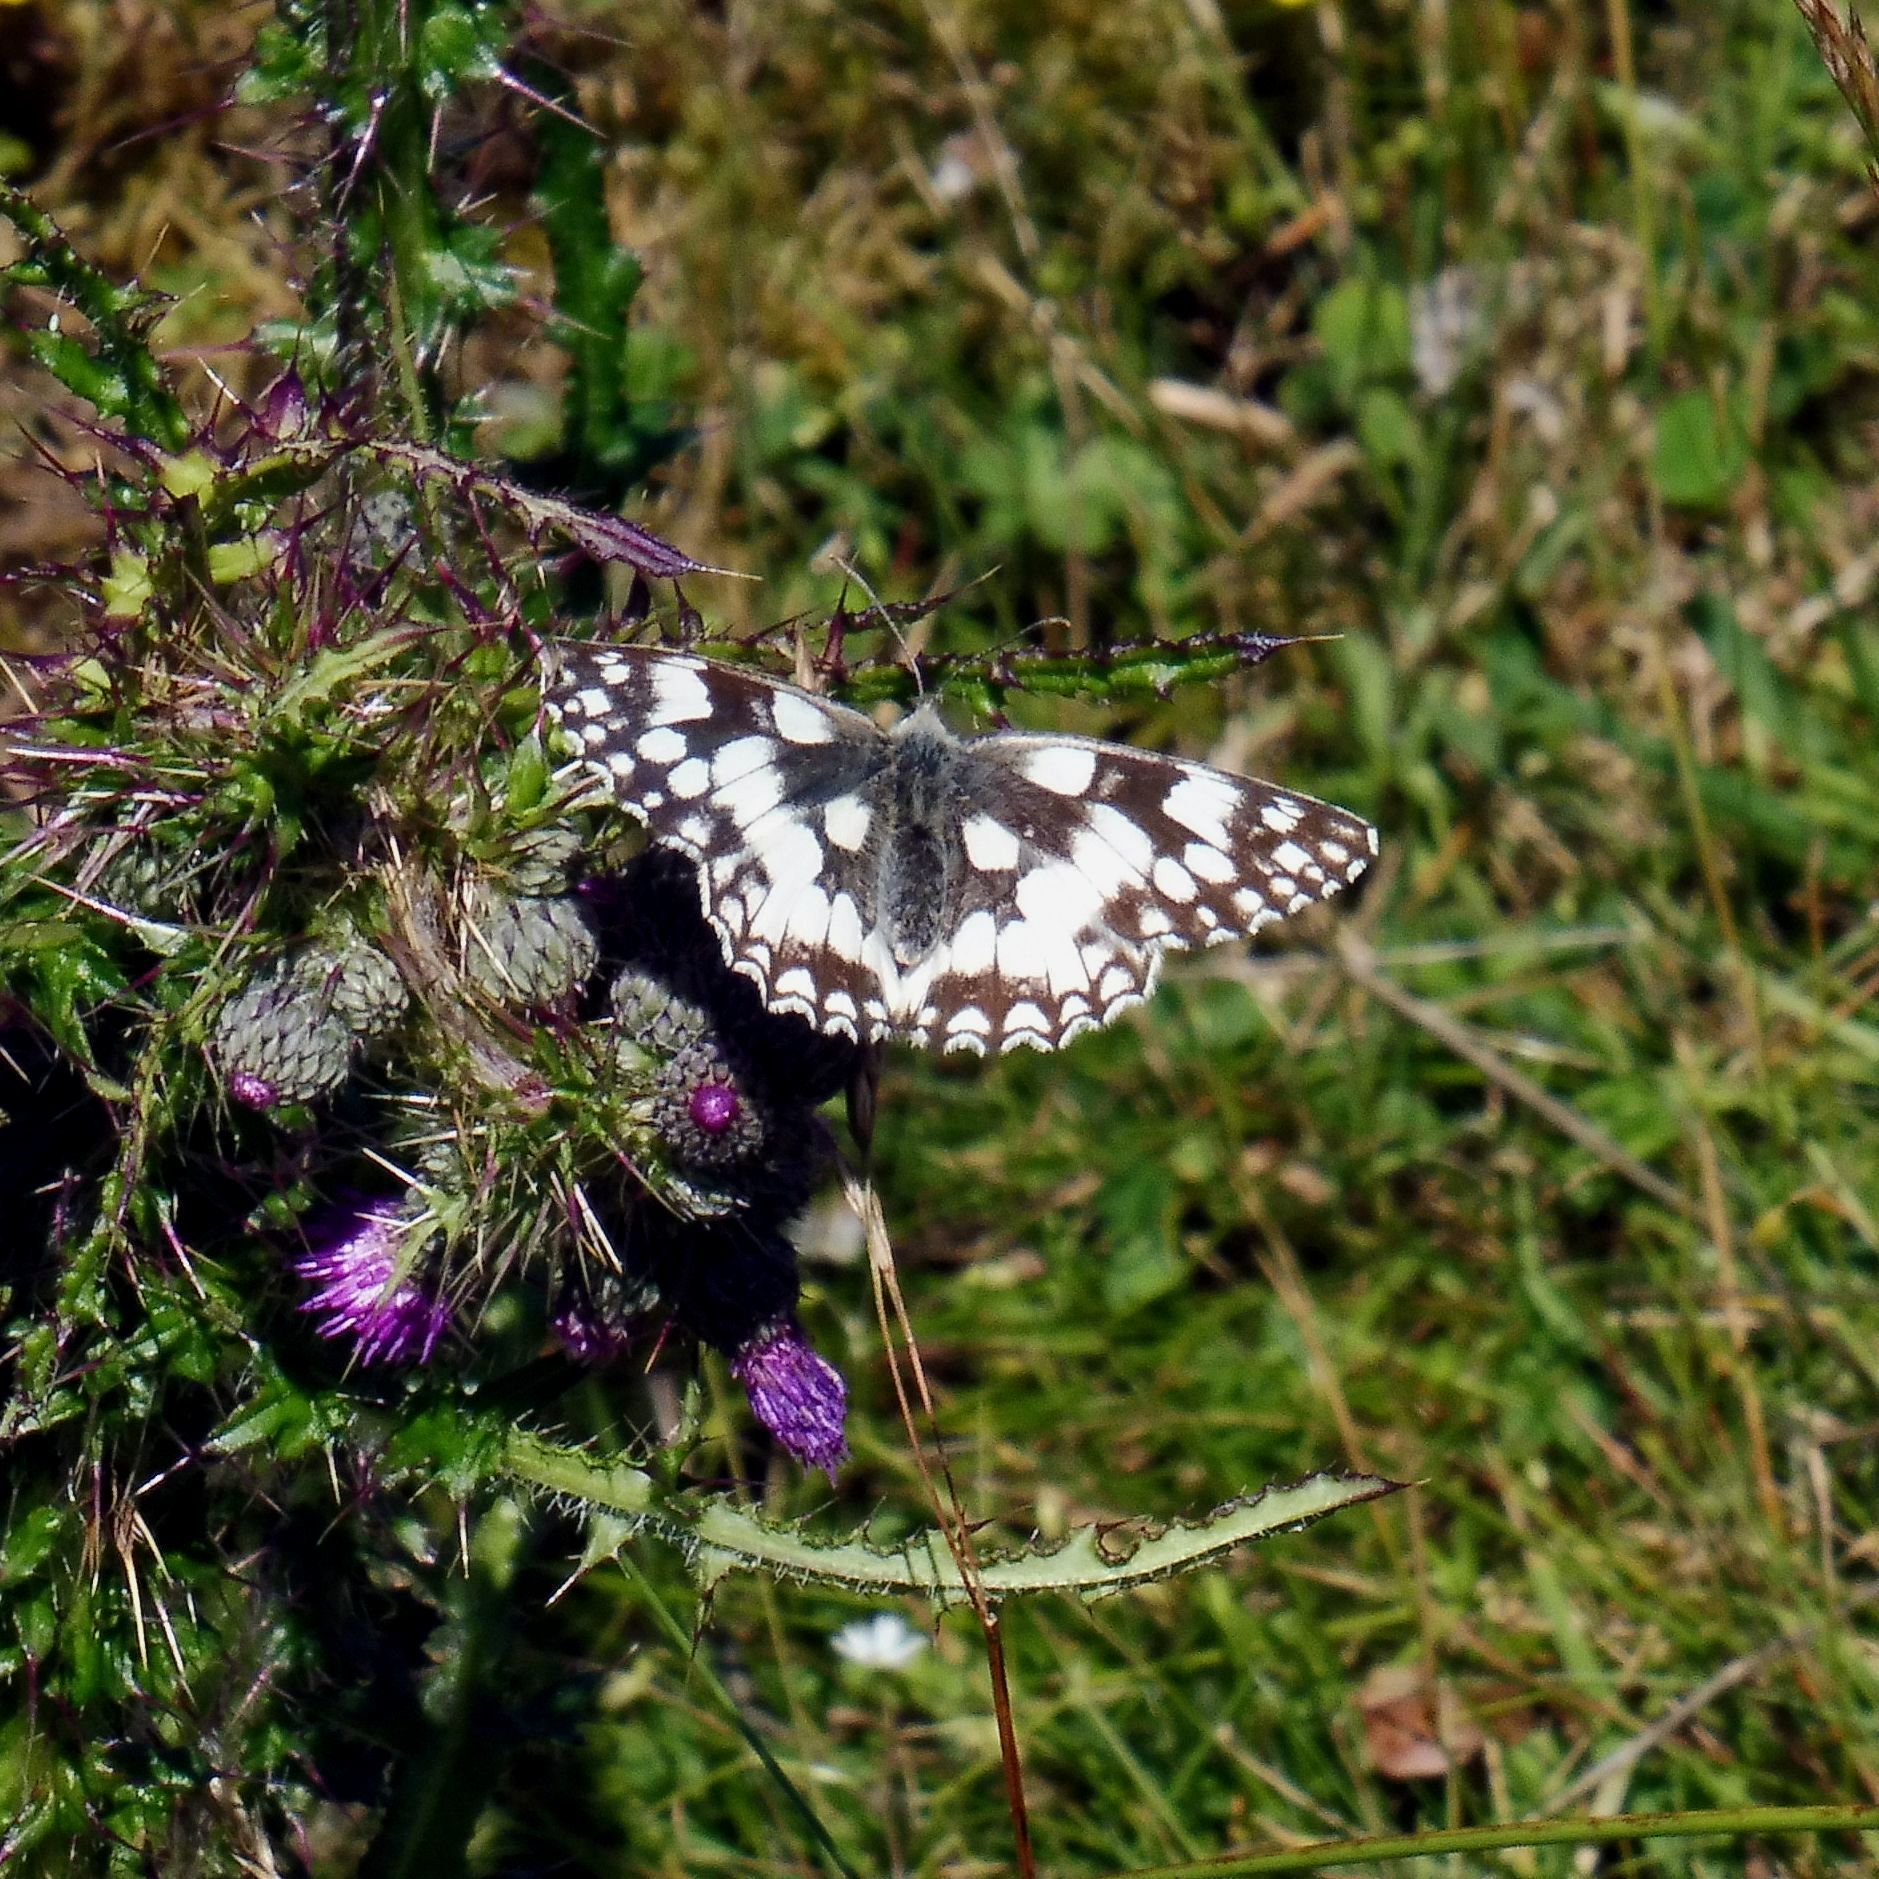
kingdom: Animalia
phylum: Arthropoda
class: Insecta
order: Lepidoptera
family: Nymphalidae
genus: Melanargia
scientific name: Melanargia galathea
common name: Marbled white
